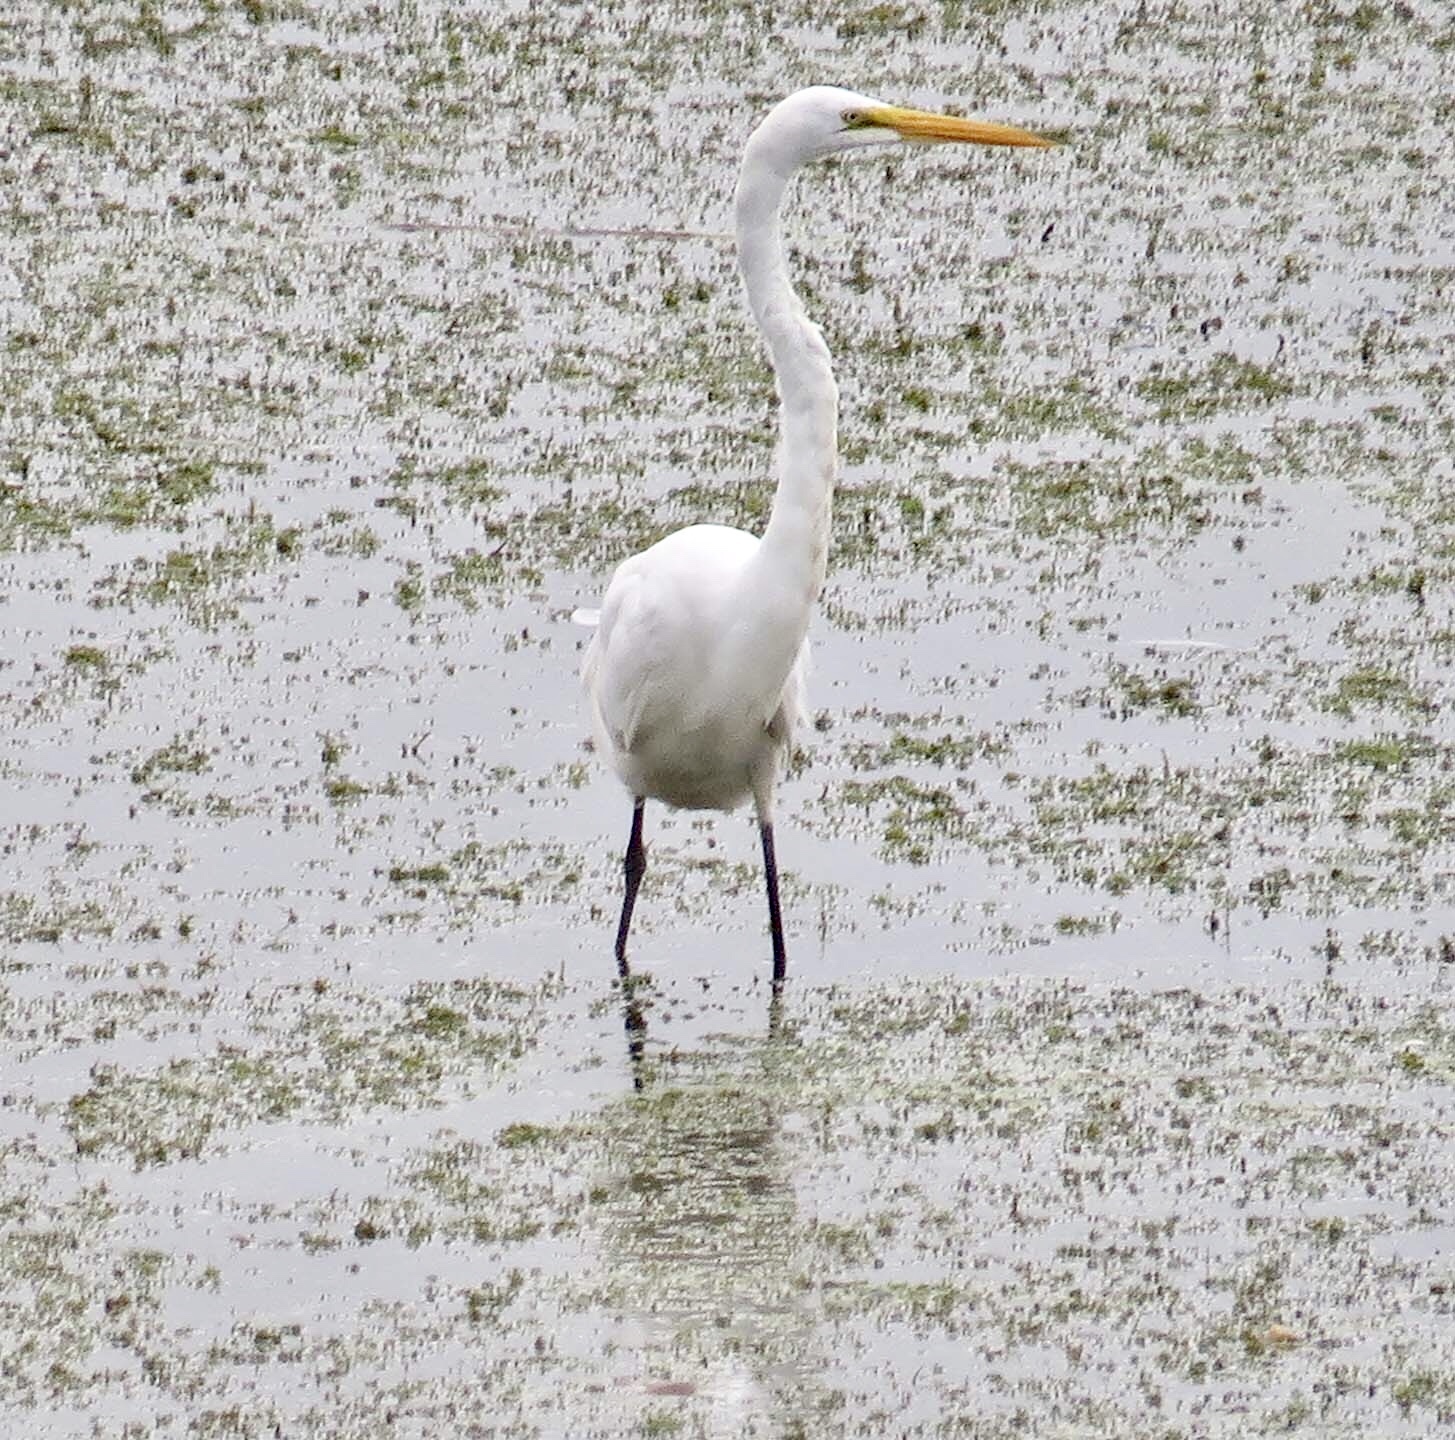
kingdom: Animalia
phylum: Chordata
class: Aves
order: Pelecaniformes
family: Ardeidae
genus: Ardea
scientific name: Ardea alba
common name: Great egret
